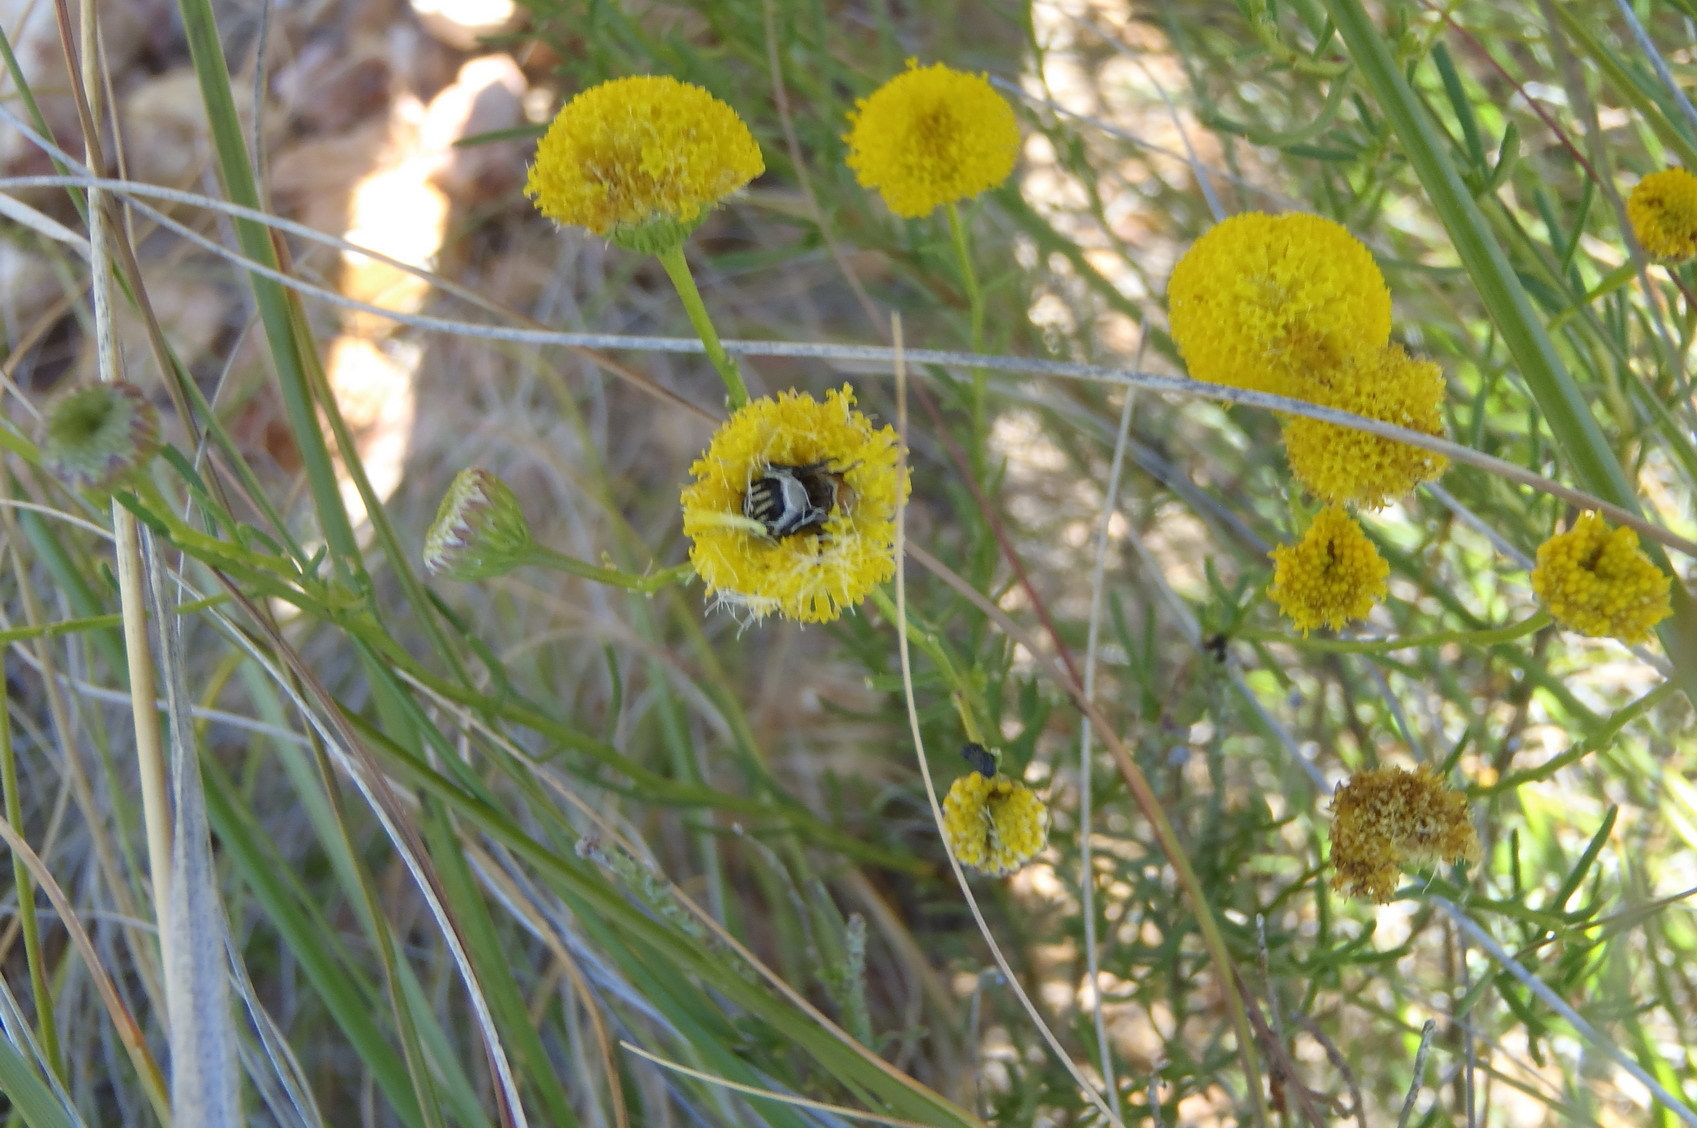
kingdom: Plantae
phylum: Tracheophyta
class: Magnoliopsida
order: Asterales
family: Asteraceae
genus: Chrysocoma
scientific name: Chrysocoma ciliata
